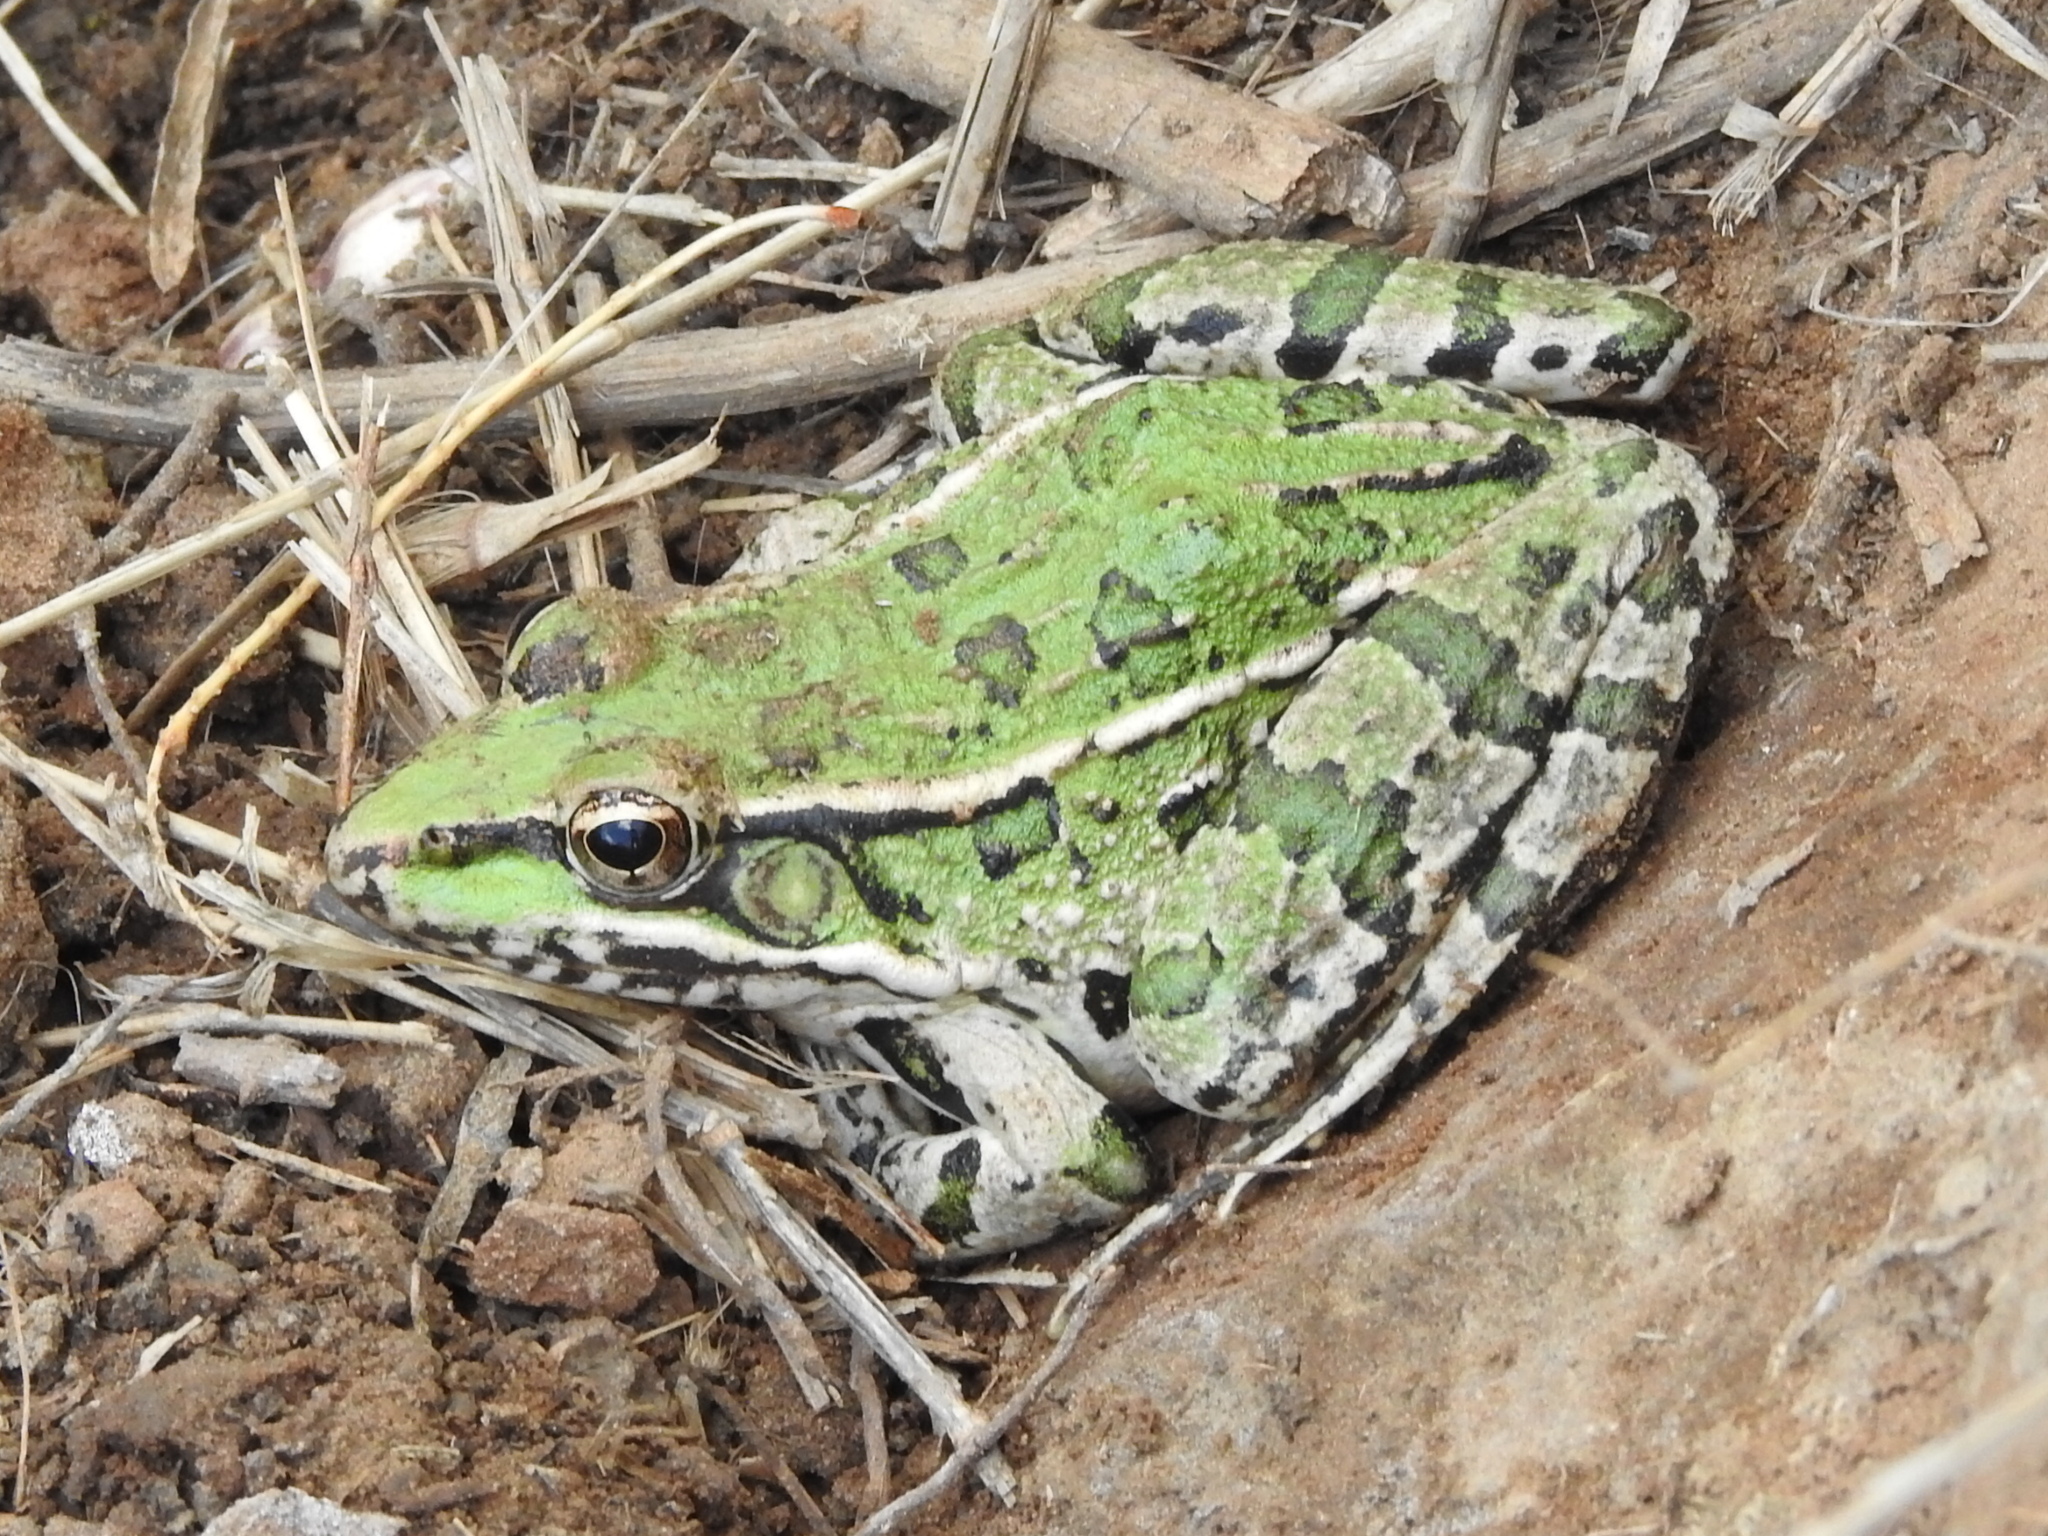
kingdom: Animalia
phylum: Chordata
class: Amphibia
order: Anura
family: Ranidae
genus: Lithobates
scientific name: Lithobates berlandieri
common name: Rio grande leopard frog
